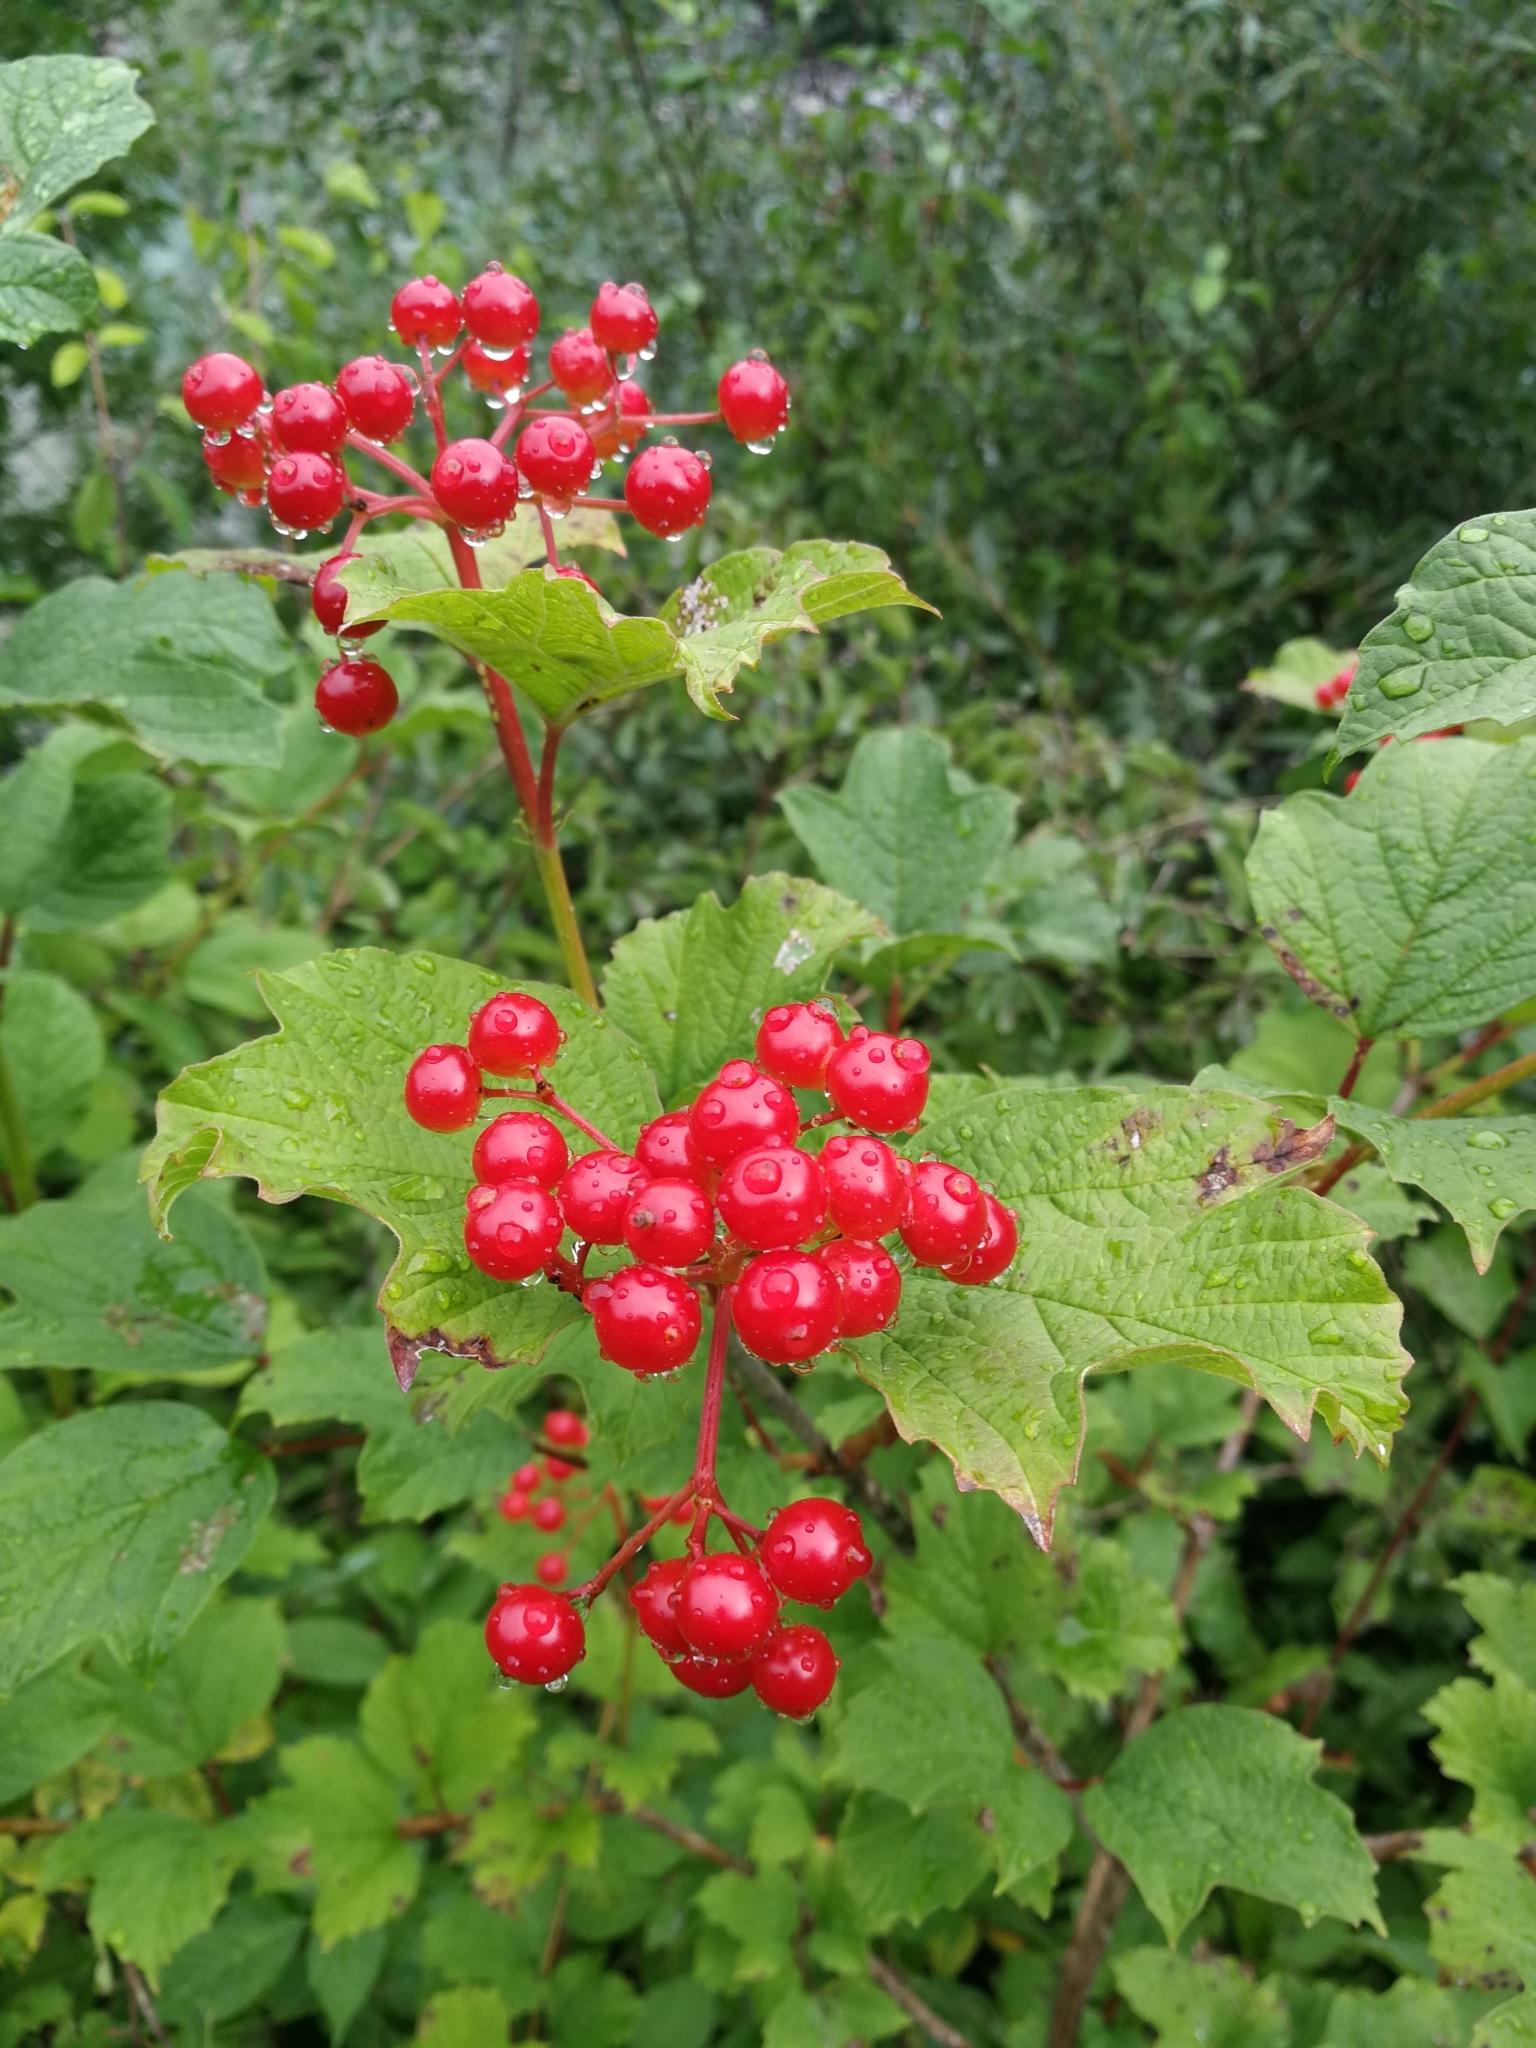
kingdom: Plantae
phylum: Tracheophyta
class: Magnoliopsida
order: Dipsacales
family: Viburnaceae
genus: Viburnum
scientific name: Viburnum opulus
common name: Guelder-rose
